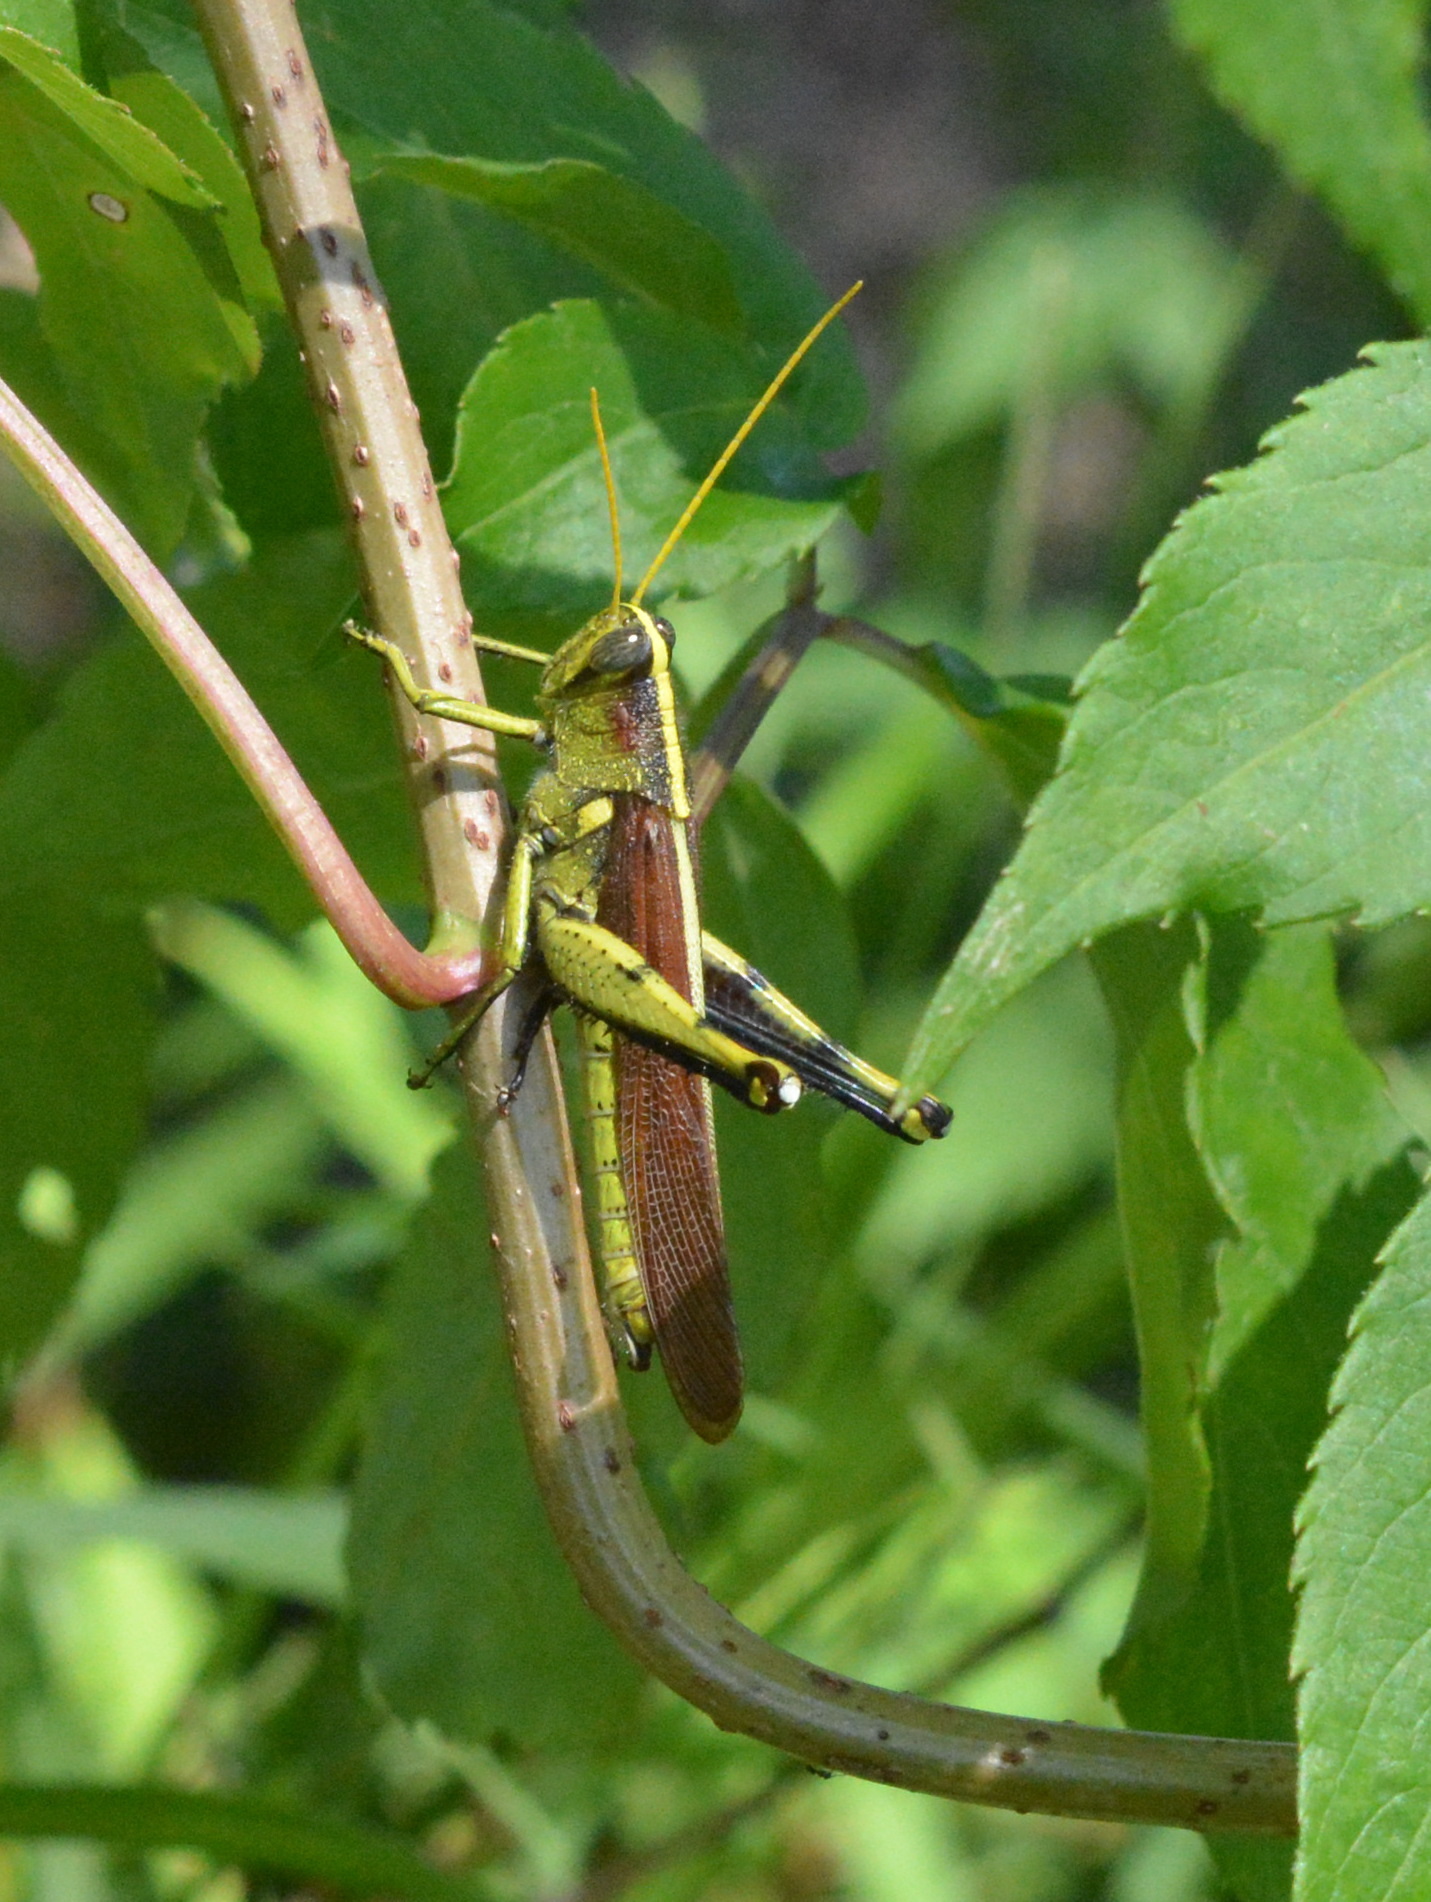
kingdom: Animalia
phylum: Arthropoda
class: Insecta
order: Orthoptera
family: Acrididae
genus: Schistocerca
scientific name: Schistocerca obscura
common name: Obscure bird grasshopper
